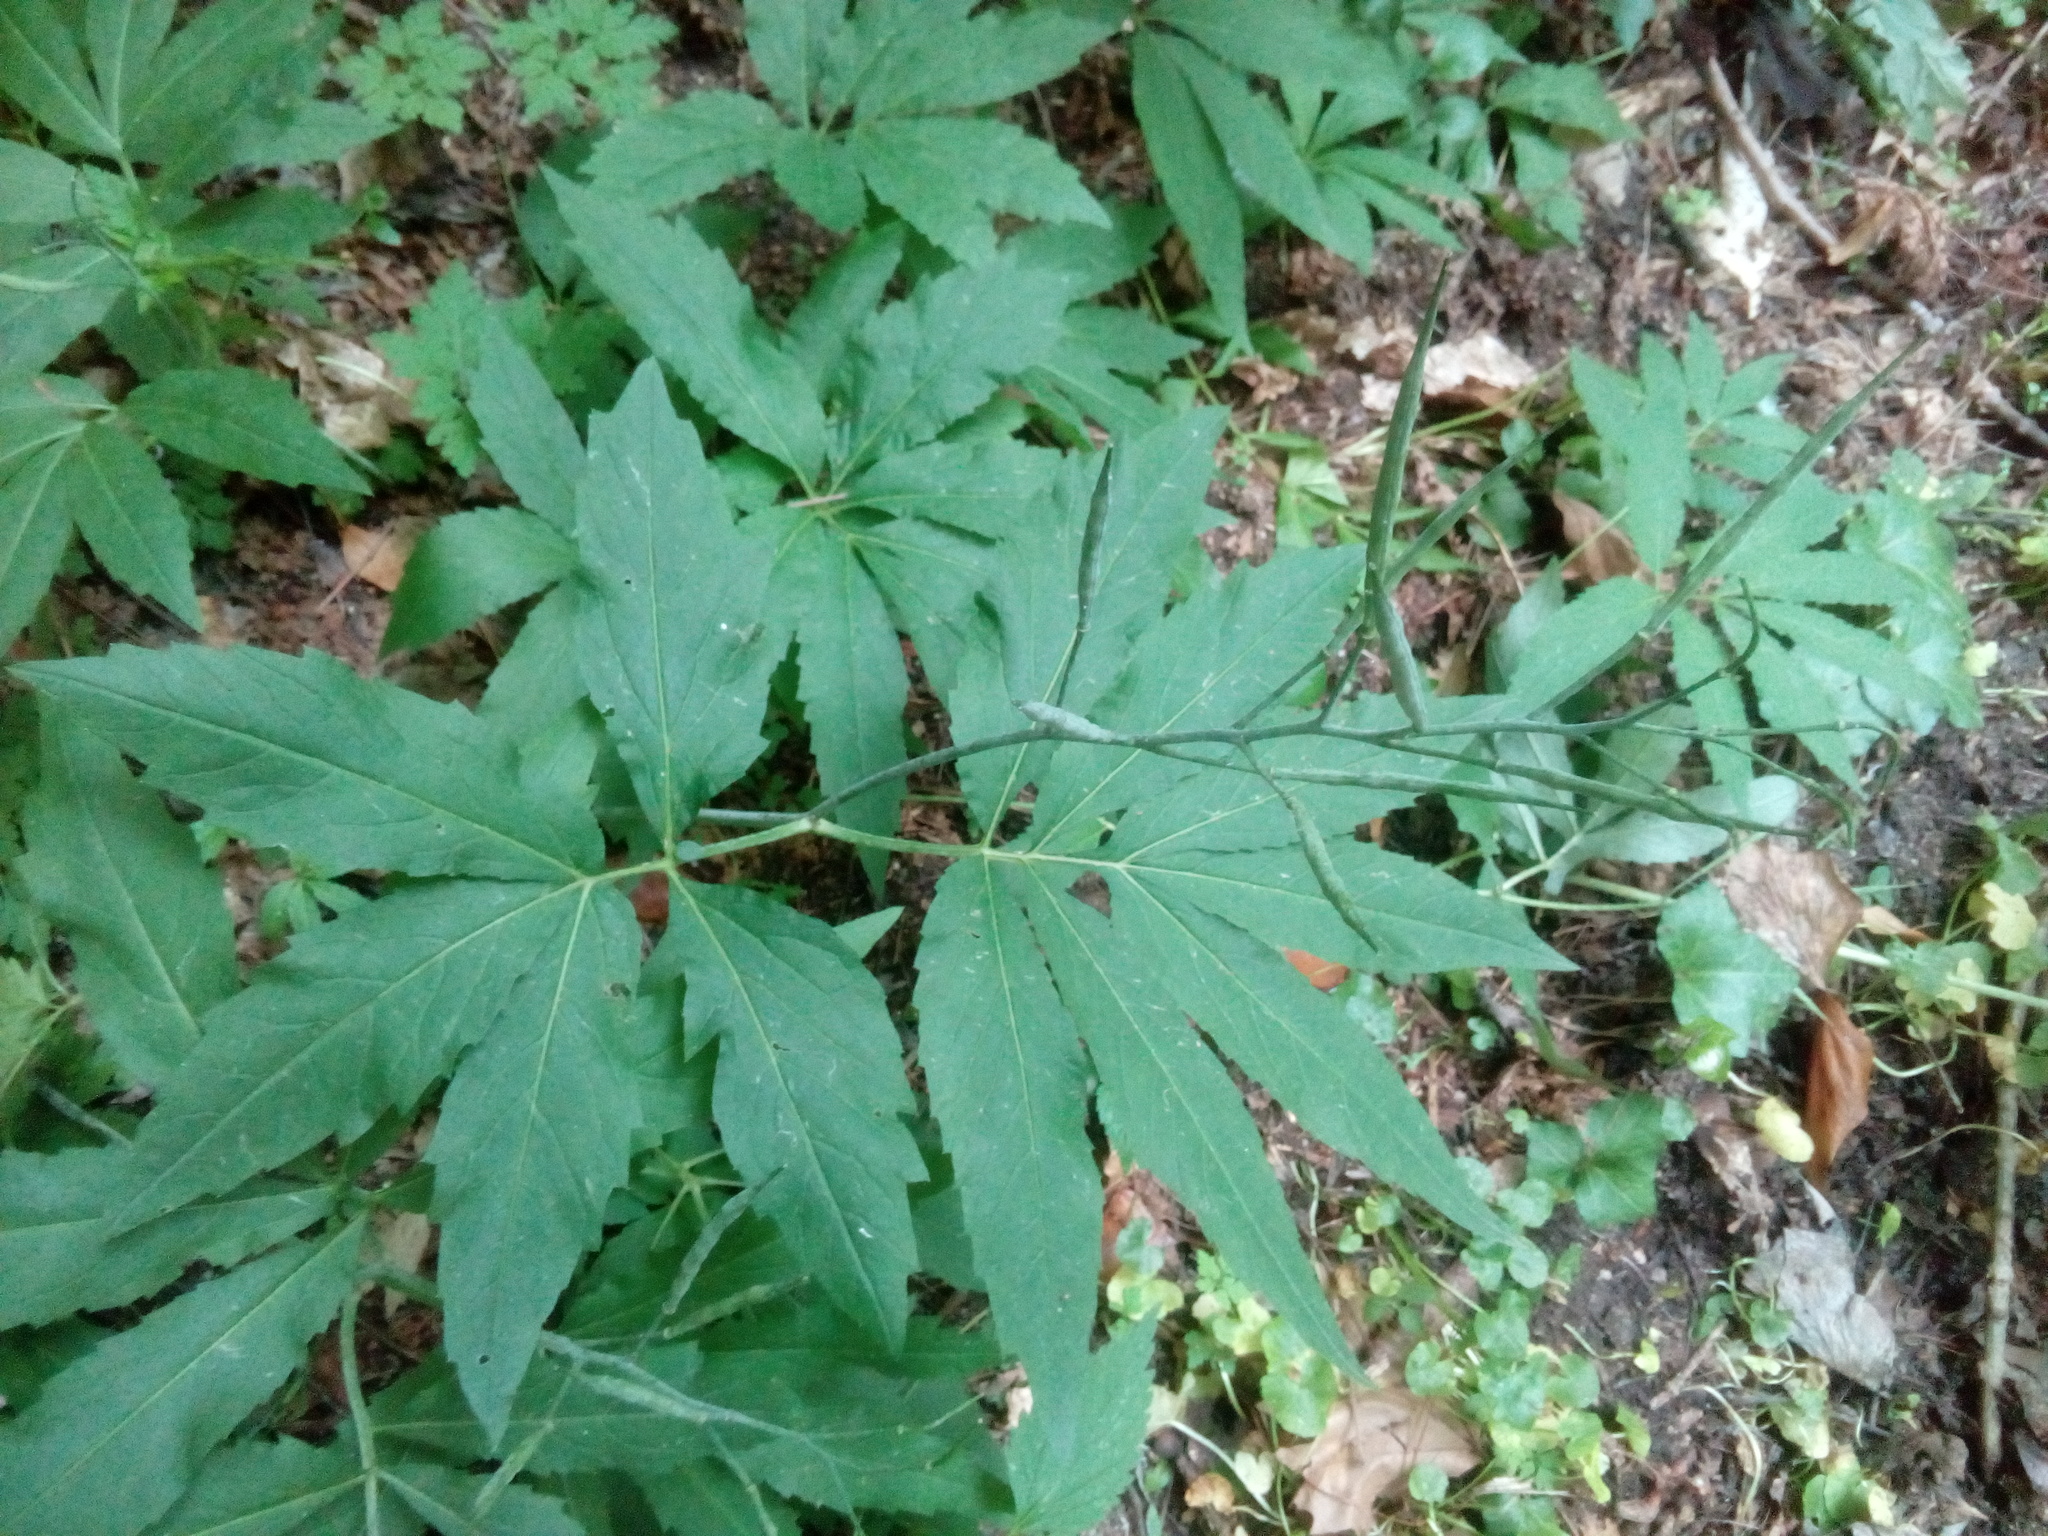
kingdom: Plantae
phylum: Tracheophyta
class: Magnoliopsida
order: Brassicales
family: Brassicaceae
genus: Cardamine
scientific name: Cardamine heptaphylla
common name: Pinnate coralroot
